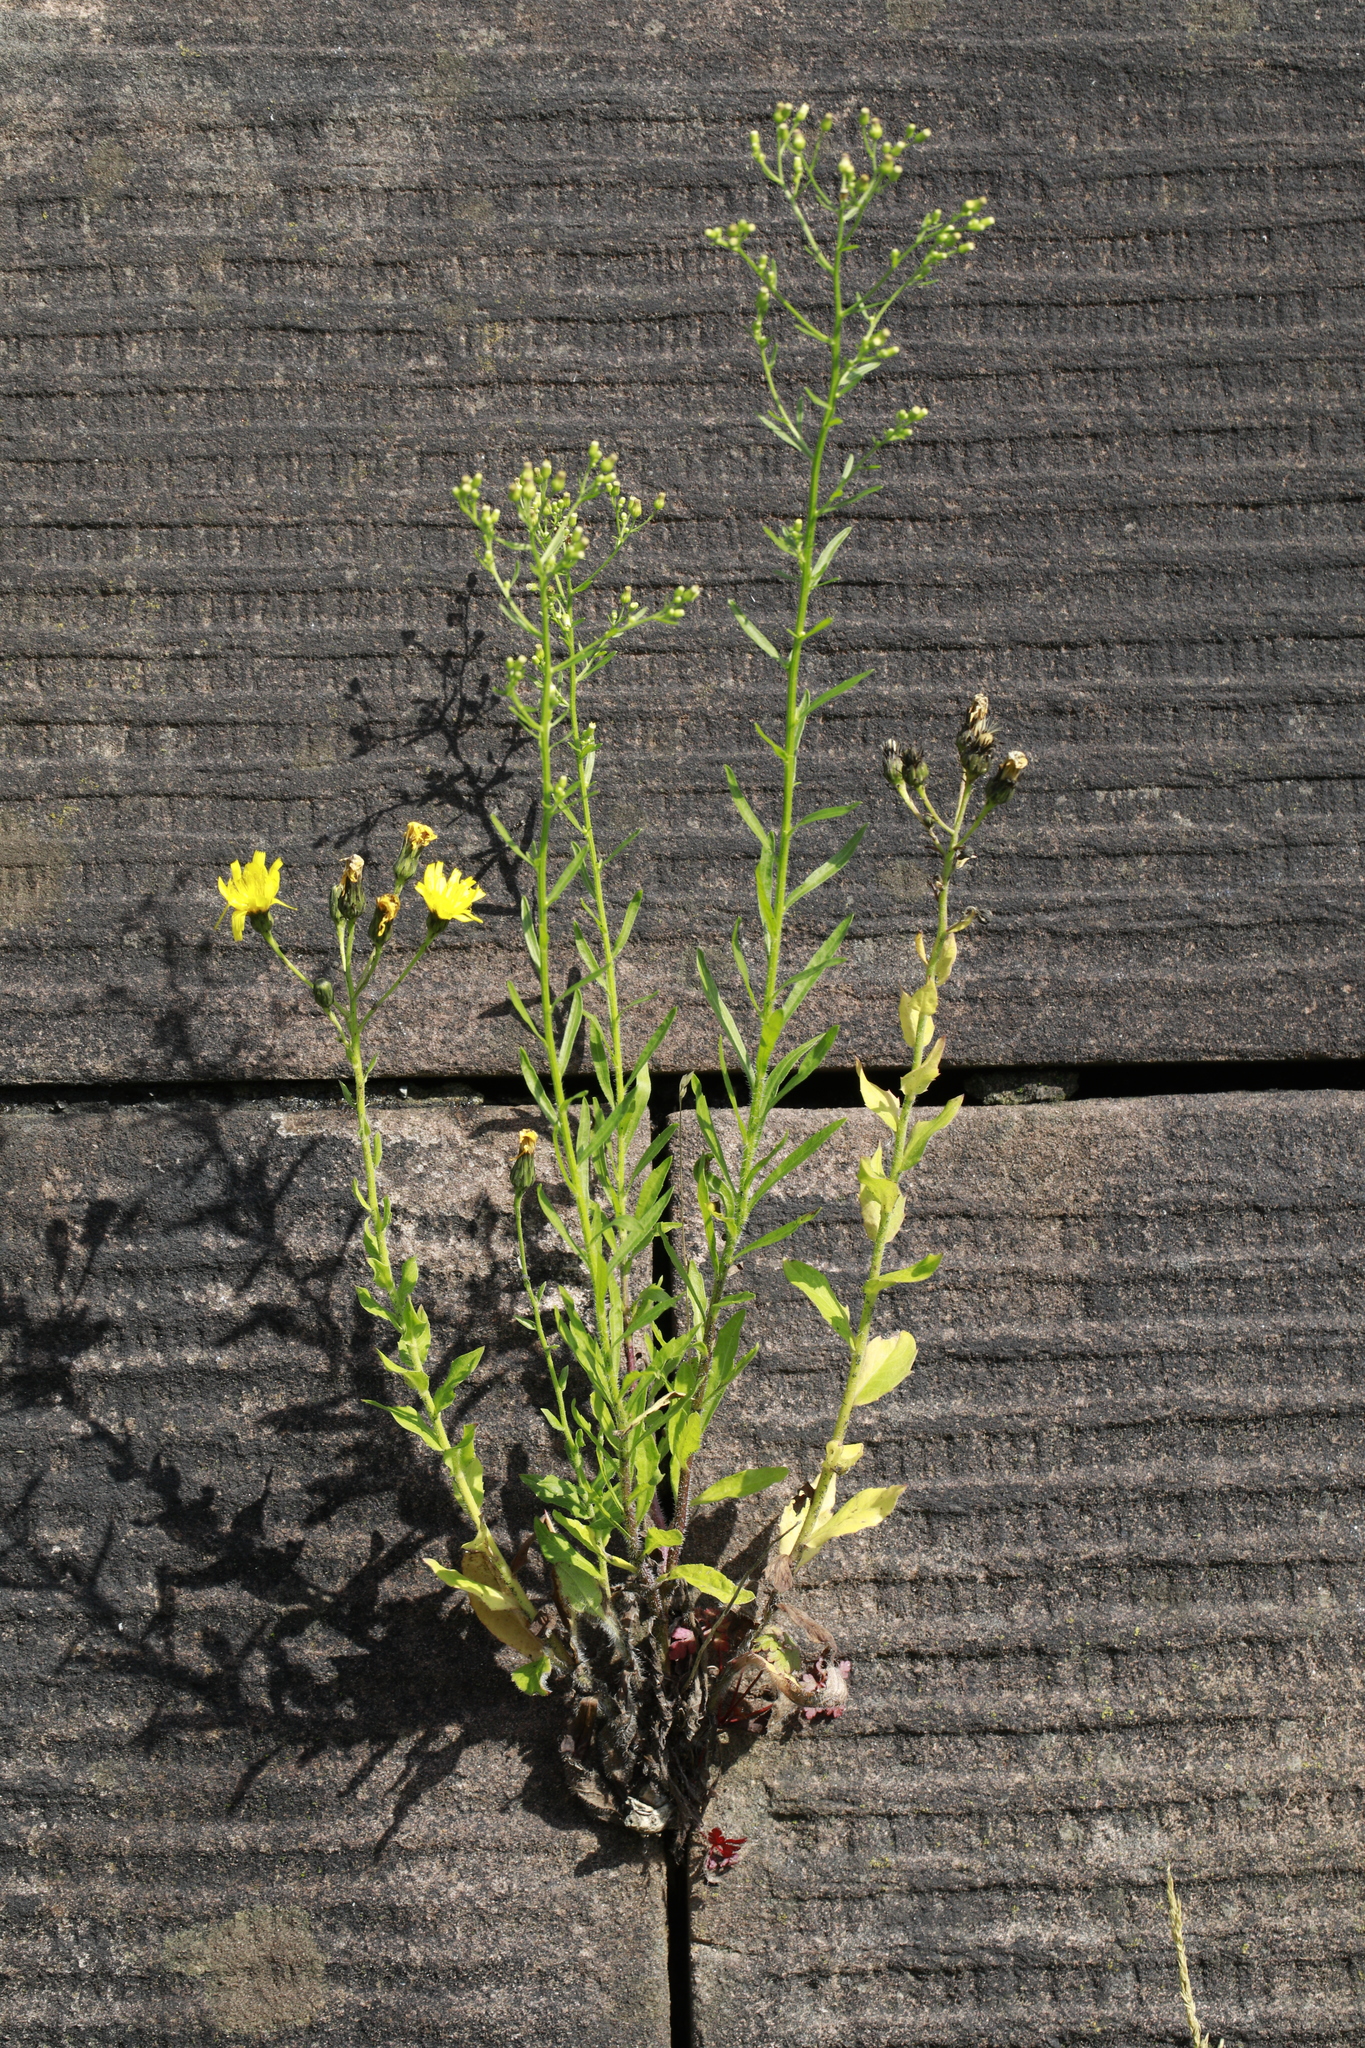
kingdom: Plantae
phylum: Tracheophyta
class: Magnoliopsida
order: Asterales
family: Asteraceae
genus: Erigeron
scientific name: Erigeron canadensis
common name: Canadian fleabane
